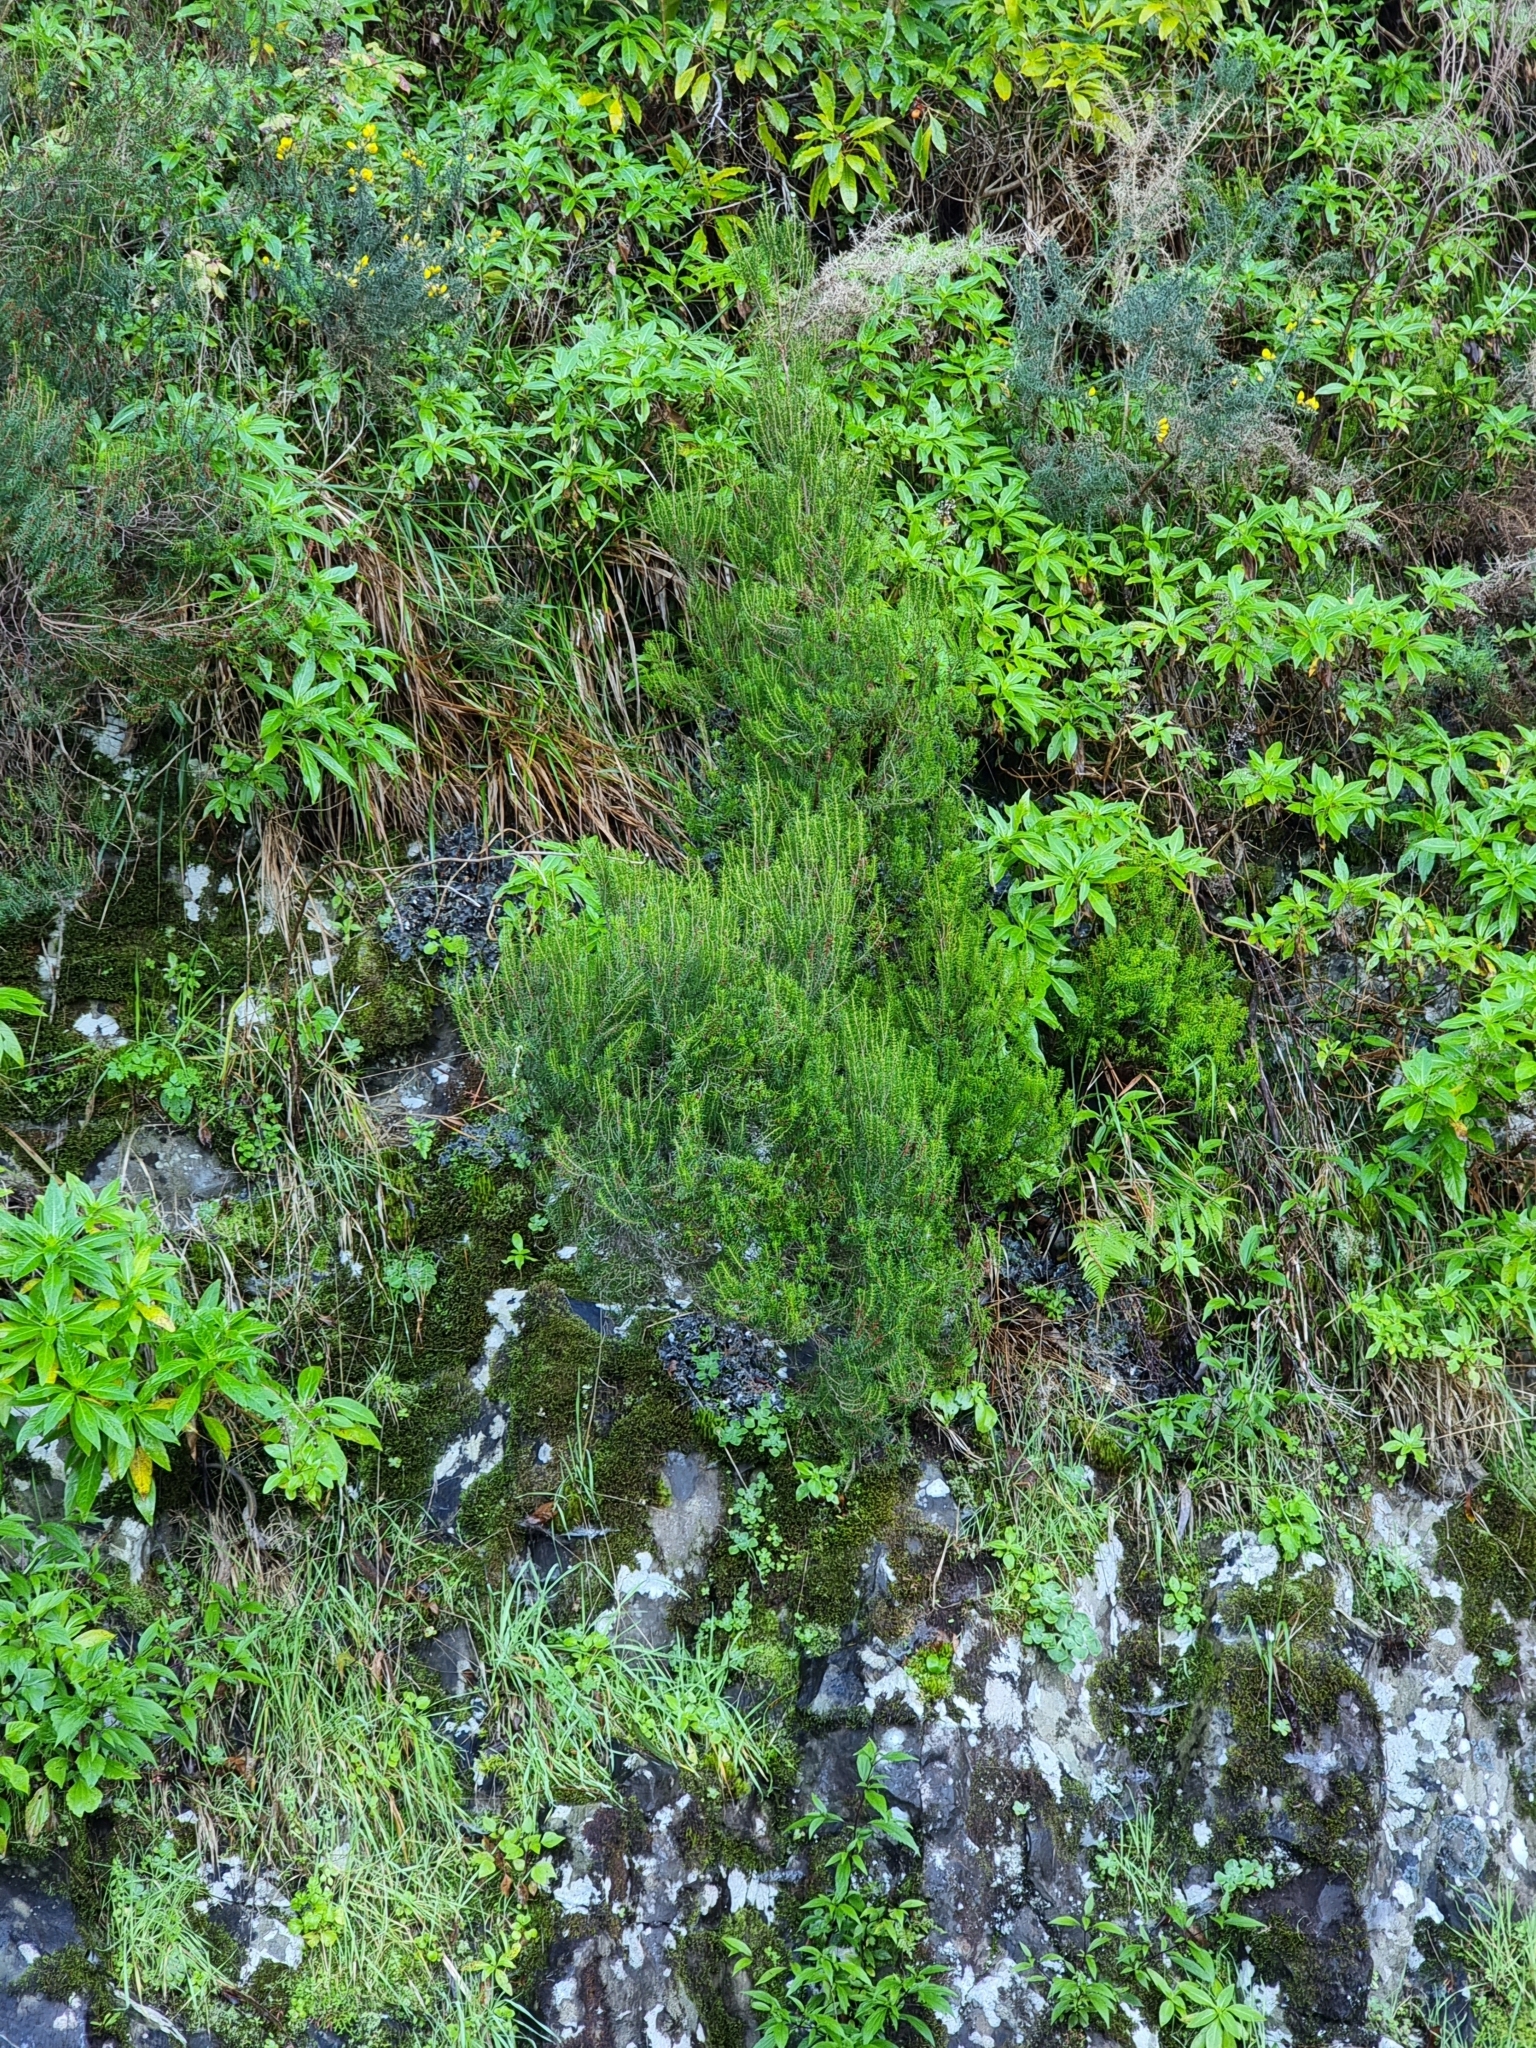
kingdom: Plantae
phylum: Tracheophyta
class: Magnoliopsida
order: Ericales
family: Ericaceae
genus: Erica
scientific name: Erica platycodon
